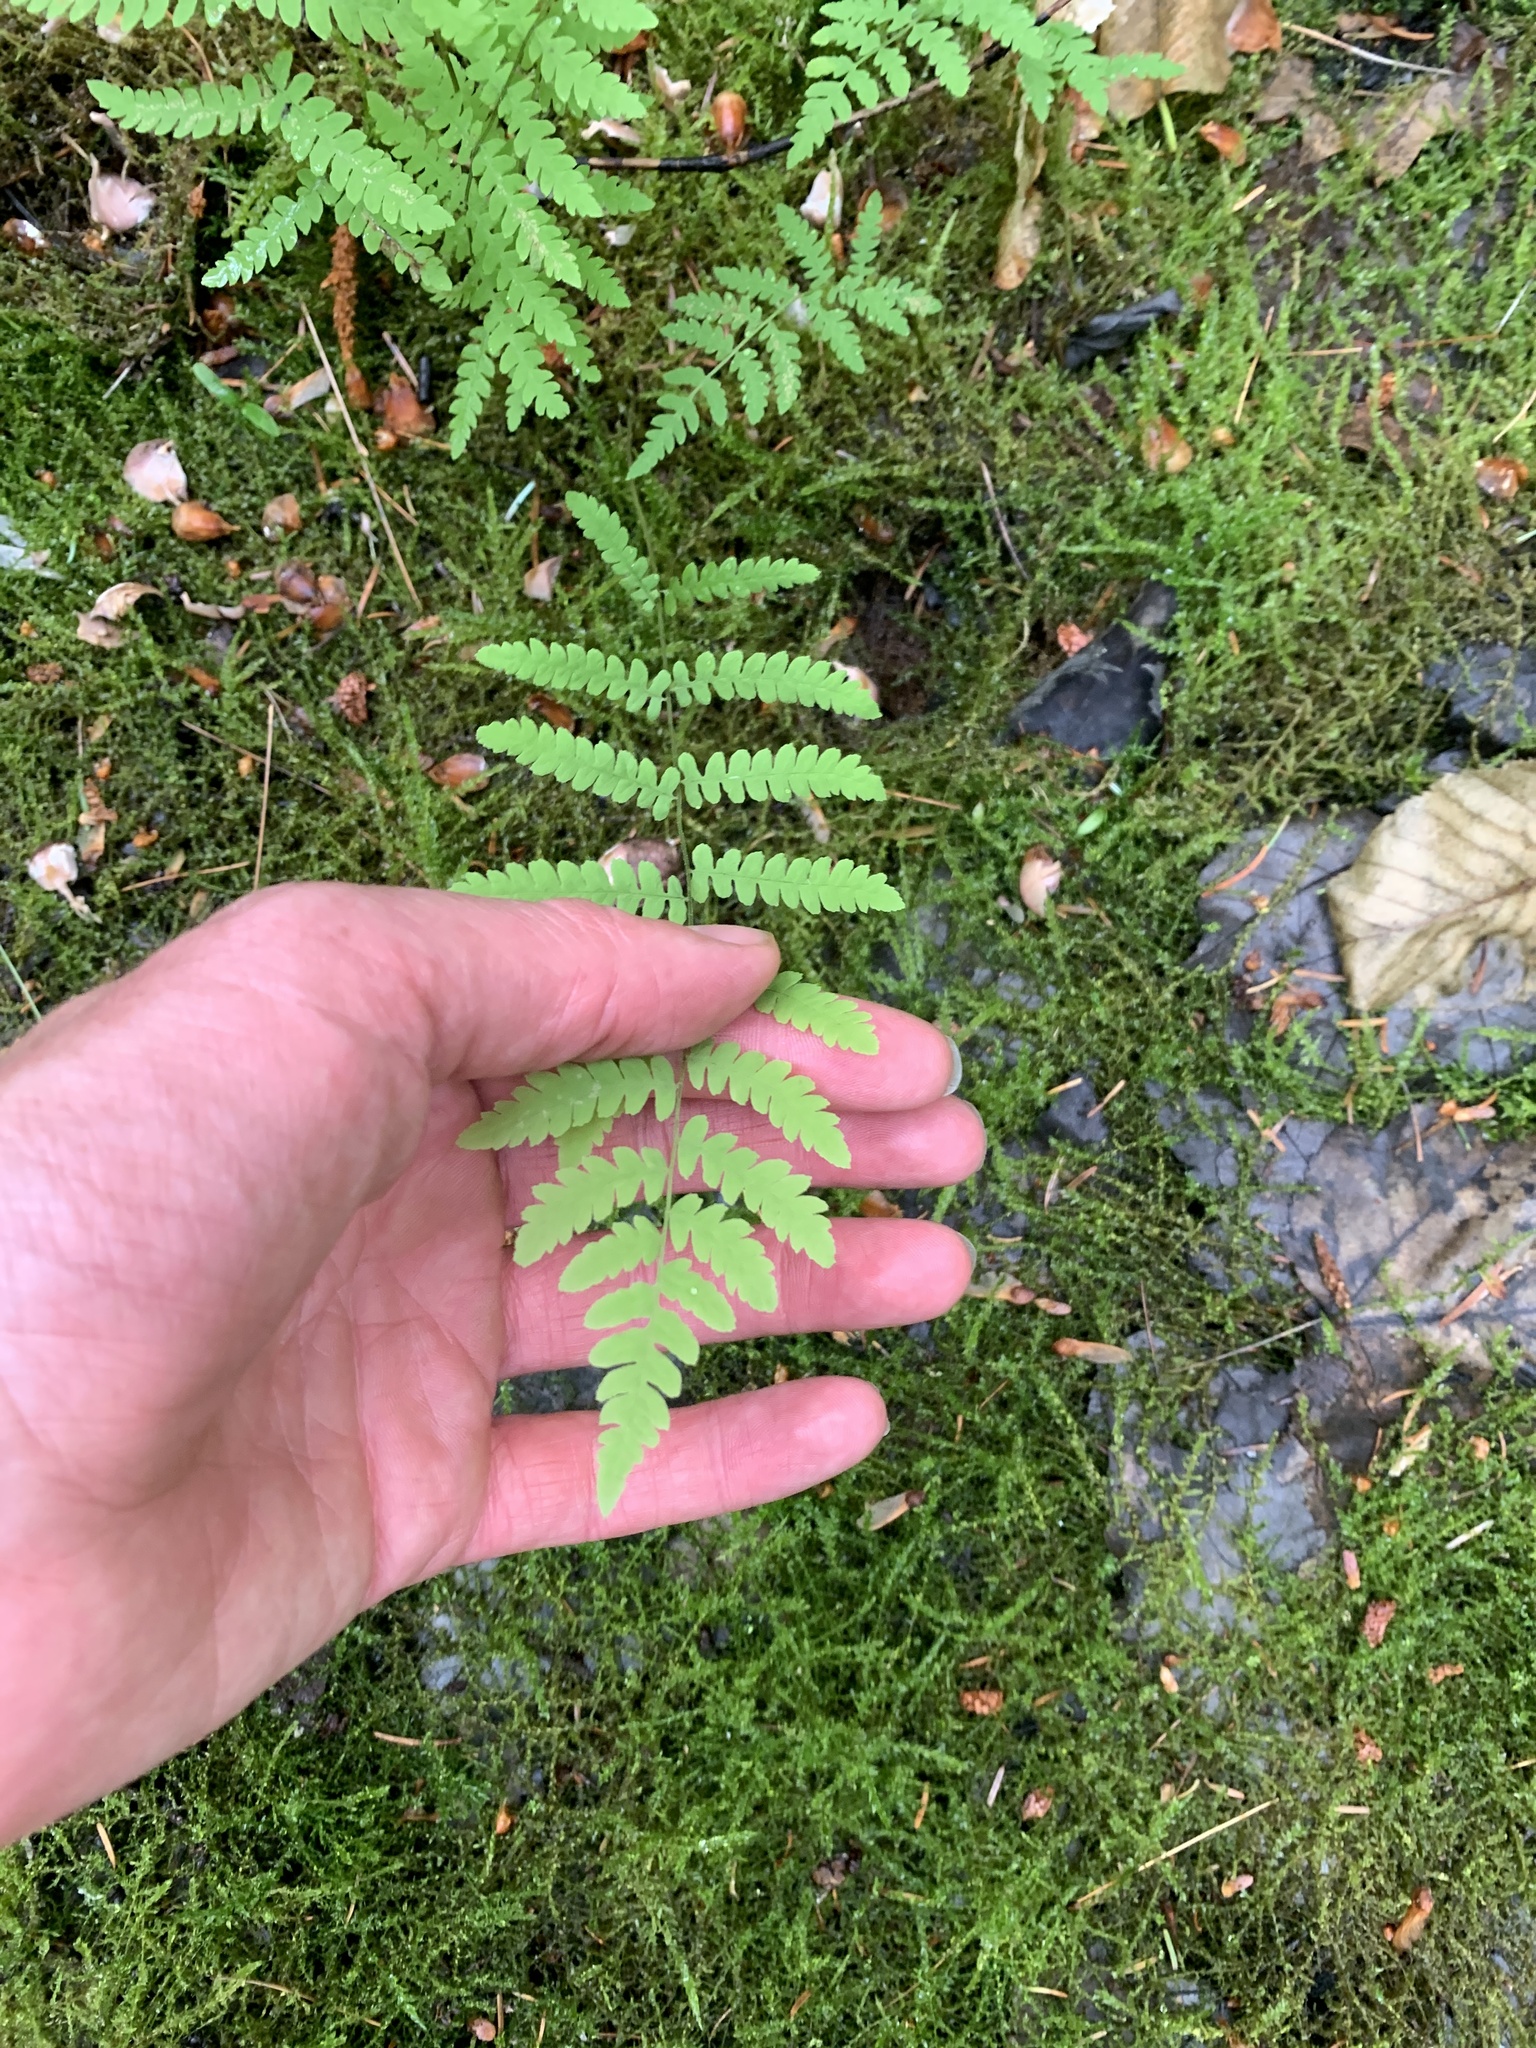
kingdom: Plantae
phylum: Tracheophyta
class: Polypodiopsida
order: Polypodiales
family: Thelypteridaceae
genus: Thelypteris
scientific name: Thelypteris palustris
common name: Marsh fern
